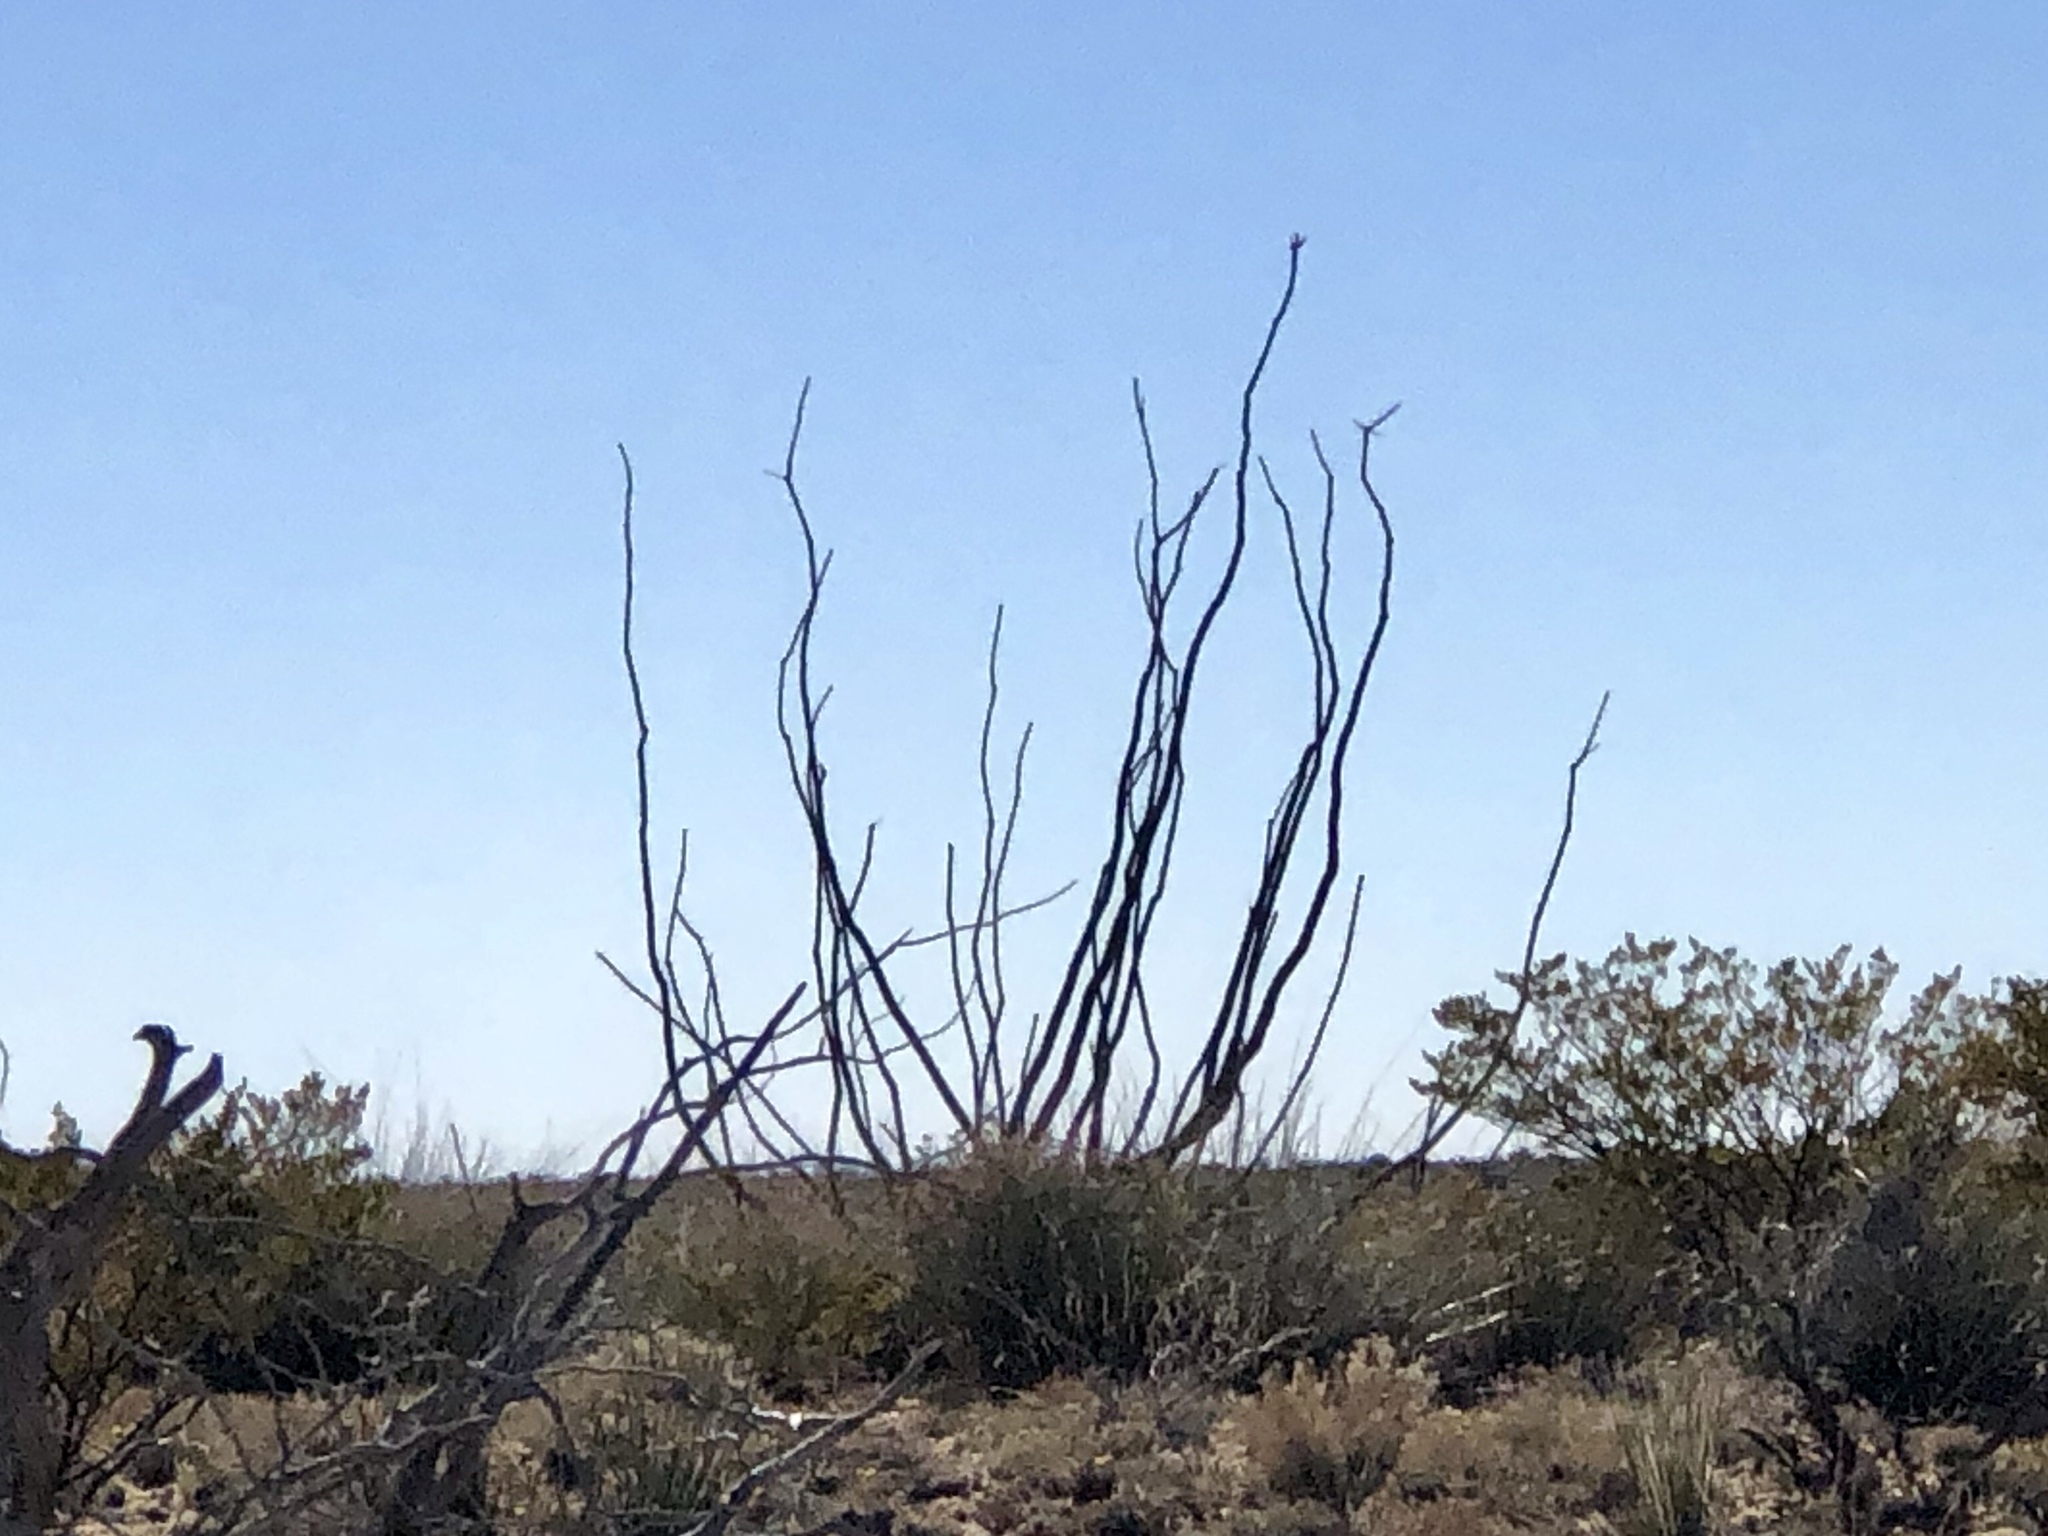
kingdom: Plantae
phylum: Tracheophyta
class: Magnoliopsida
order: Ericales
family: Fouquieriaceae
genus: Fouquieria
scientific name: Fouquieria splendens
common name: Vine-cactus
